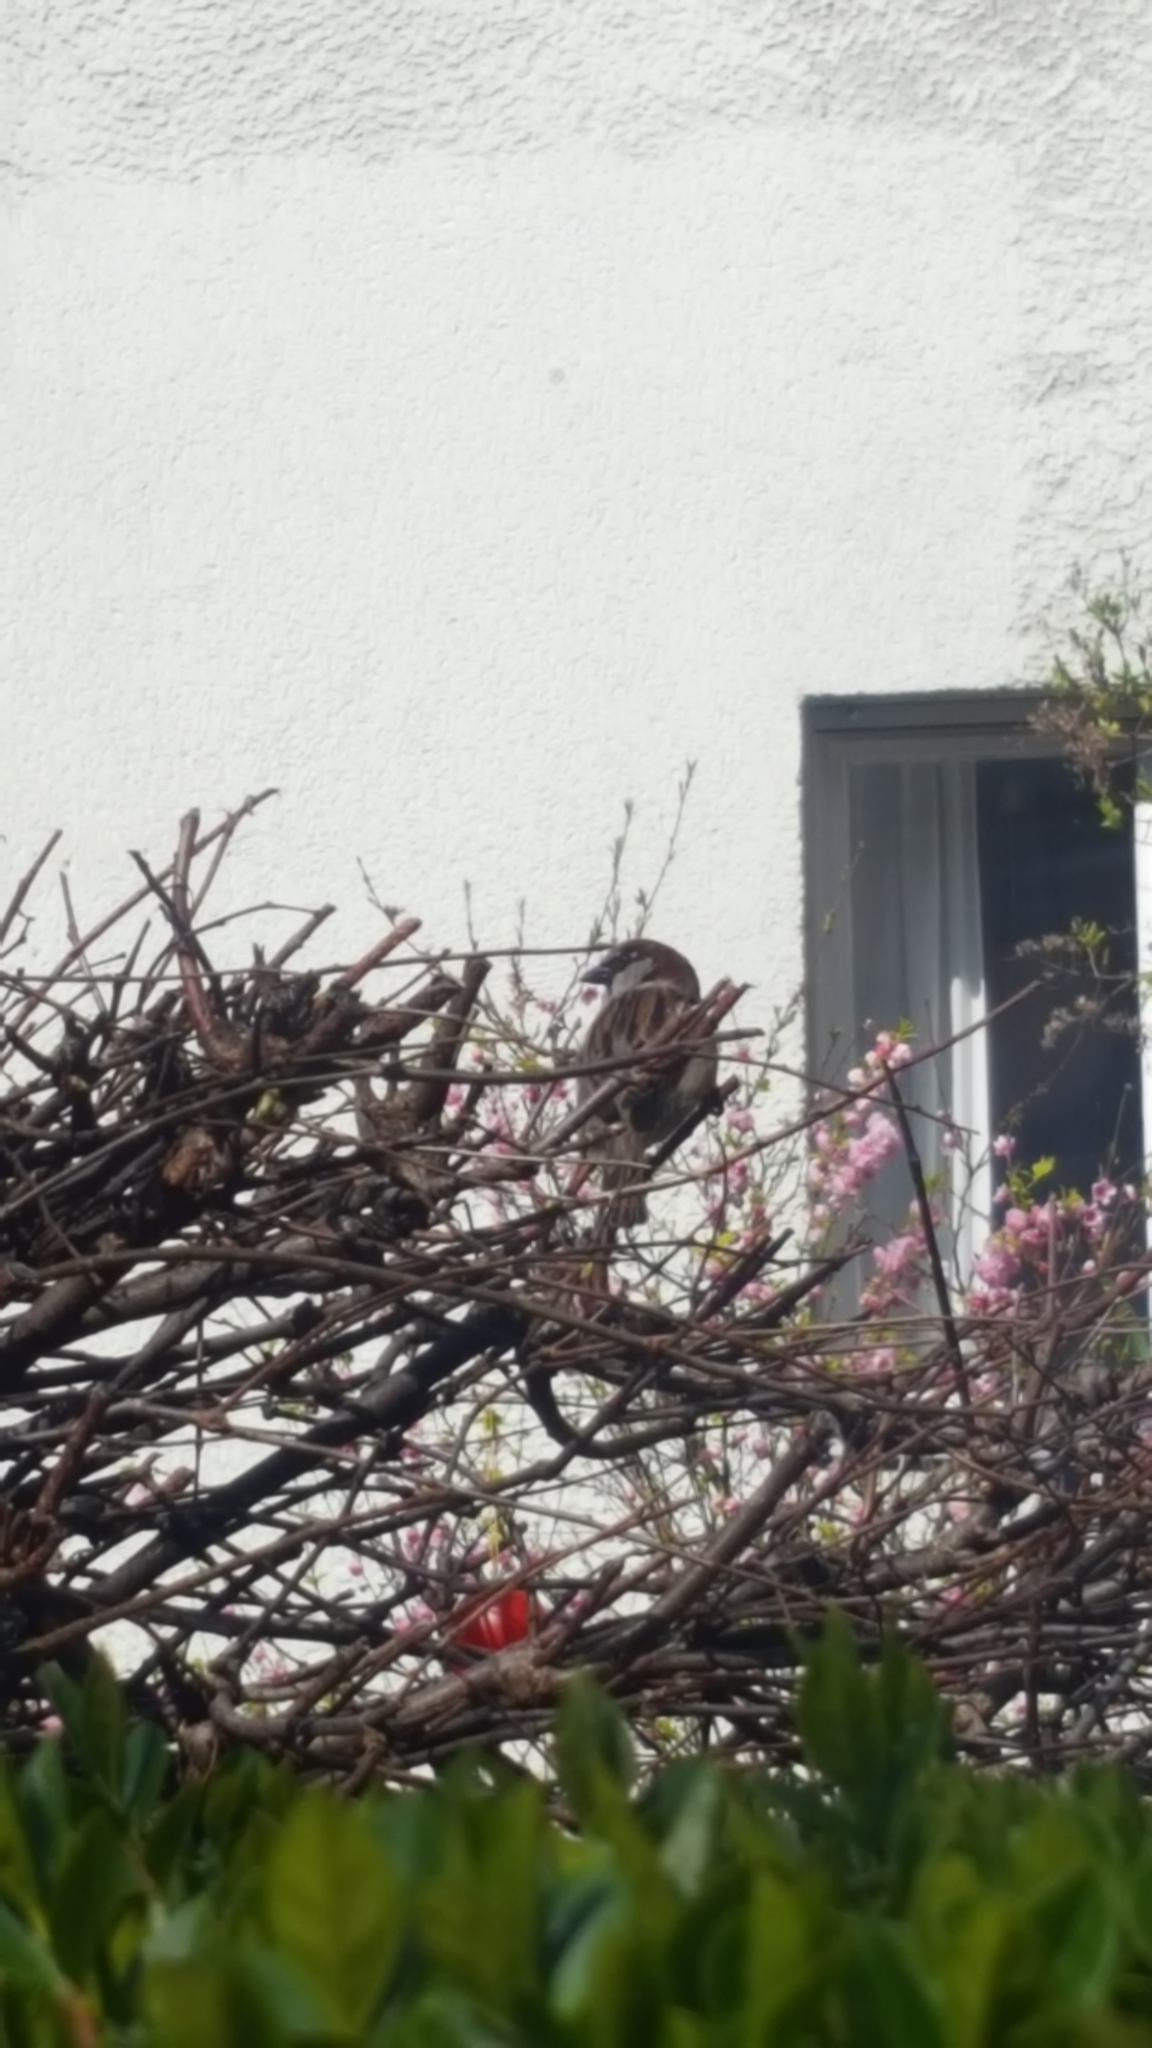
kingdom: Animalia
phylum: Chordata
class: Aves
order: Passeriformes
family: Passeridae
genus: Passer
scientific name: Passer domesticus
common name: House sparrow
